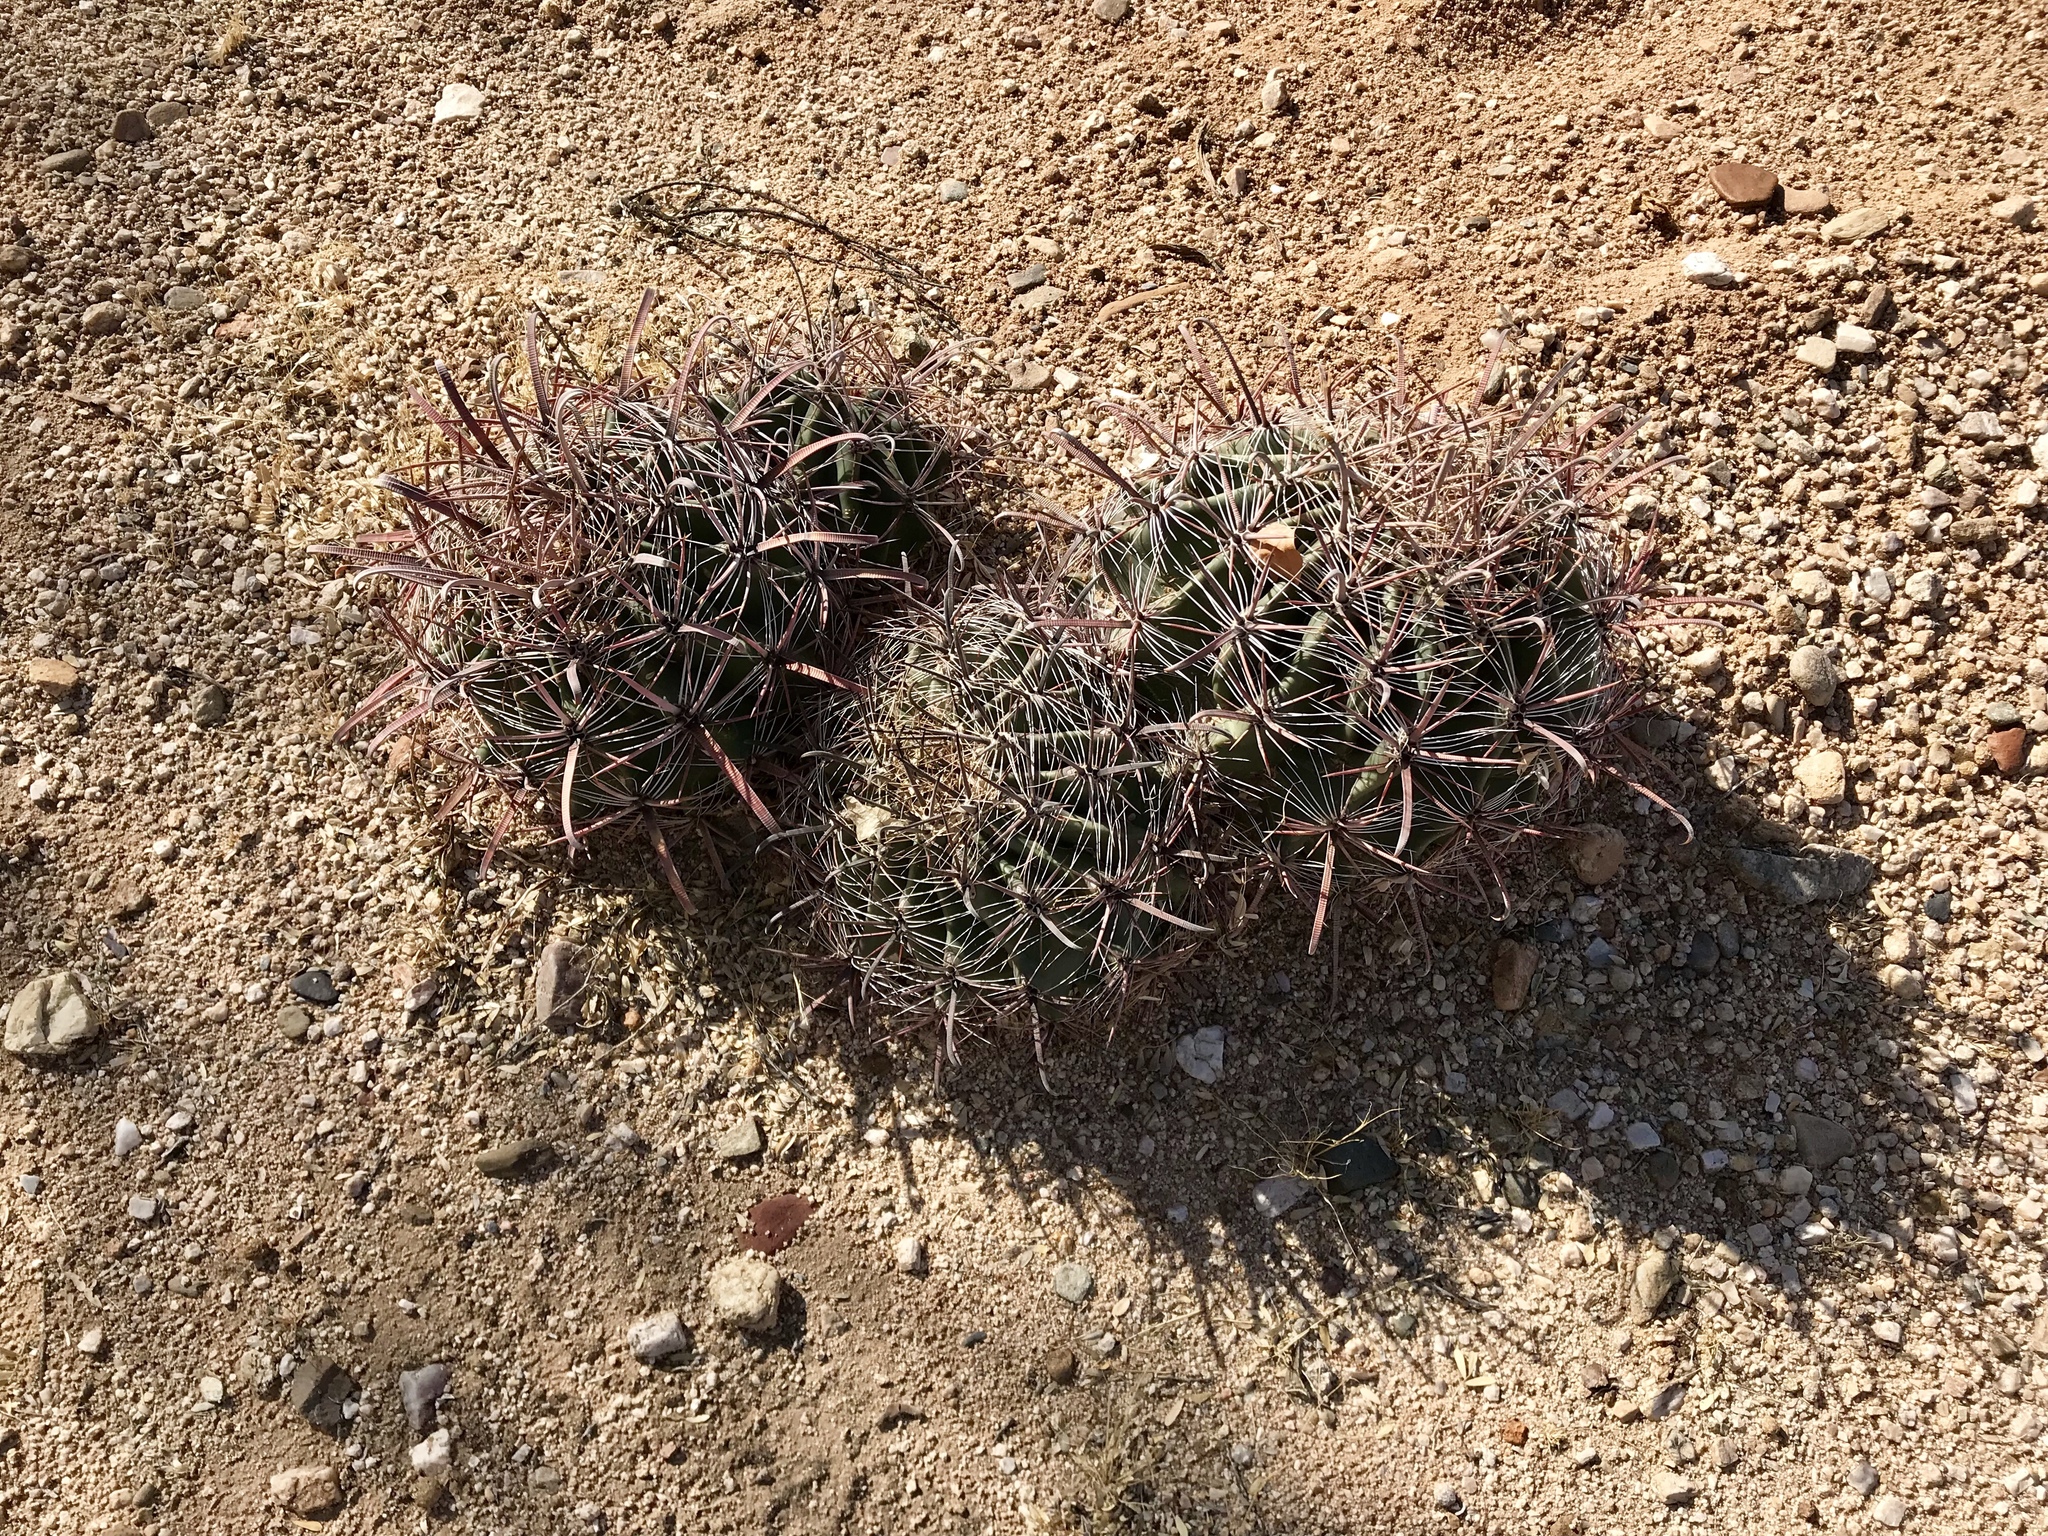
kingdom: Plantae
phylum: Tracheophyta
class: Magnoliopsida
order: Caryophyllales
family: Cactaceae
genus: Ferocactus
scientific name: Ferocactus wislizeni
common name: Candy barrel cactus
